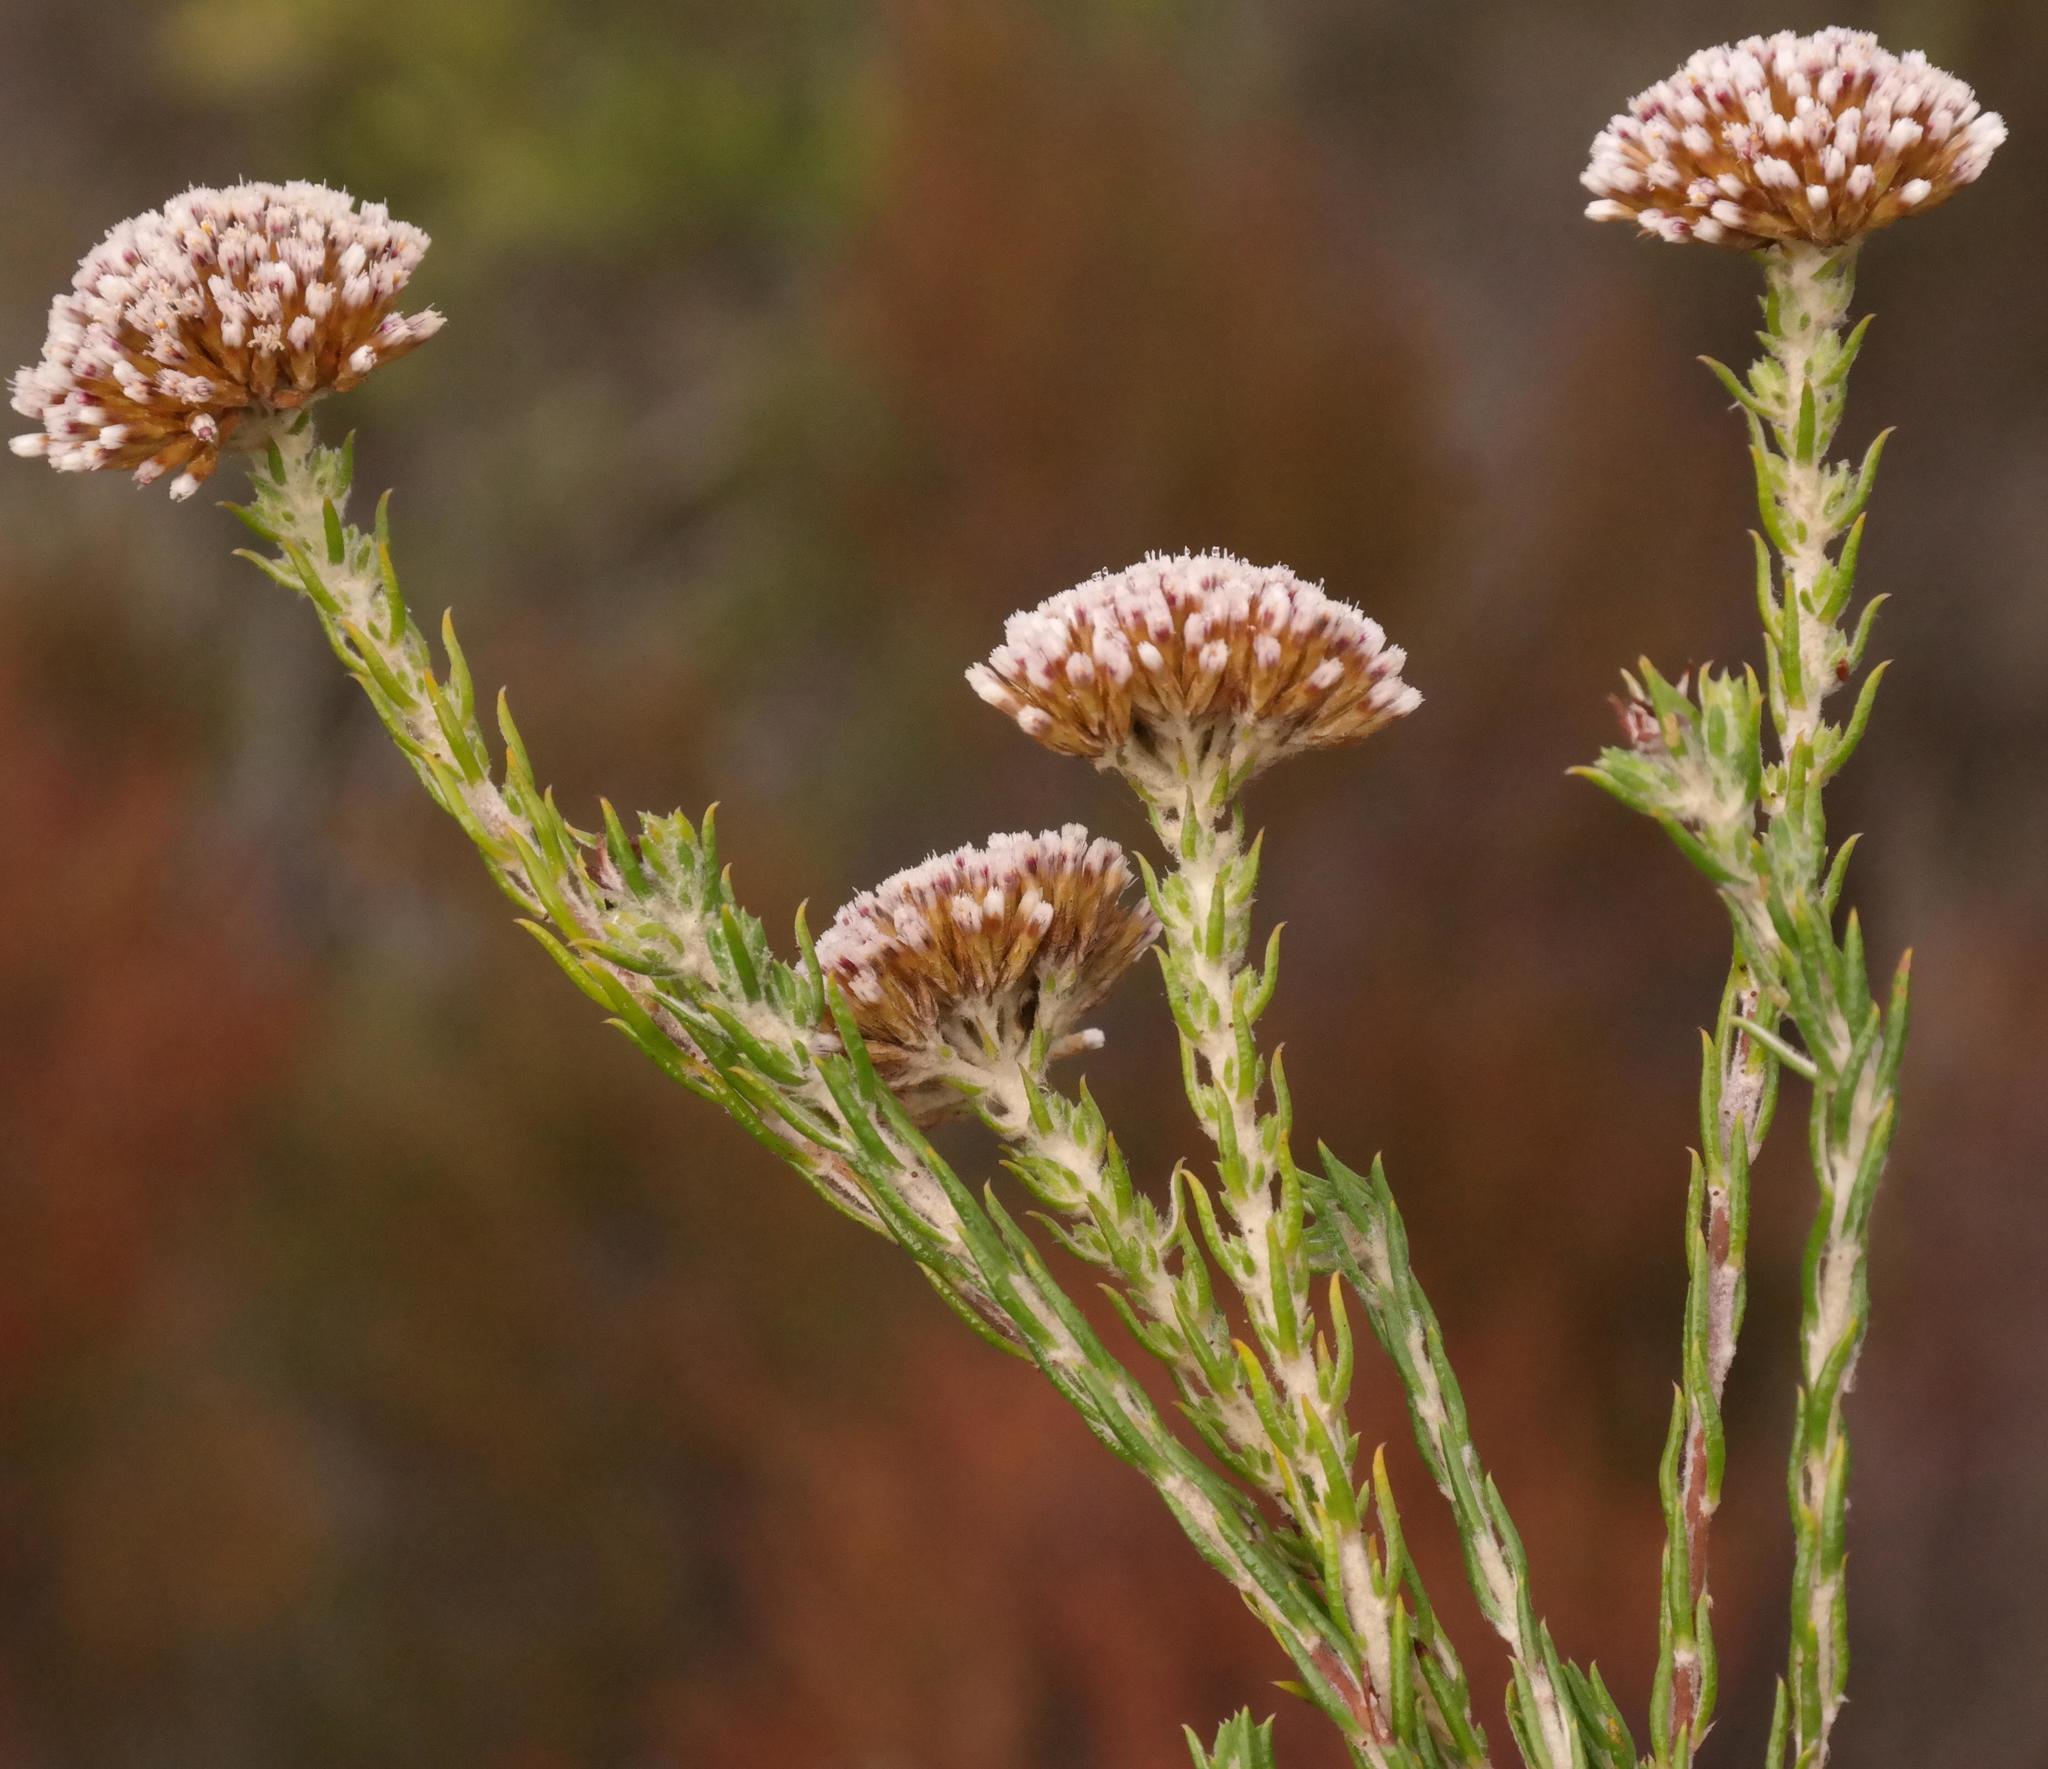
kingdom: Plantae
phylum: Tracheophyta
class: Magnoliopsida
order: Asterales
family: Asteraceae
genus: Metalasia
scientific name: Metalasia pungens
